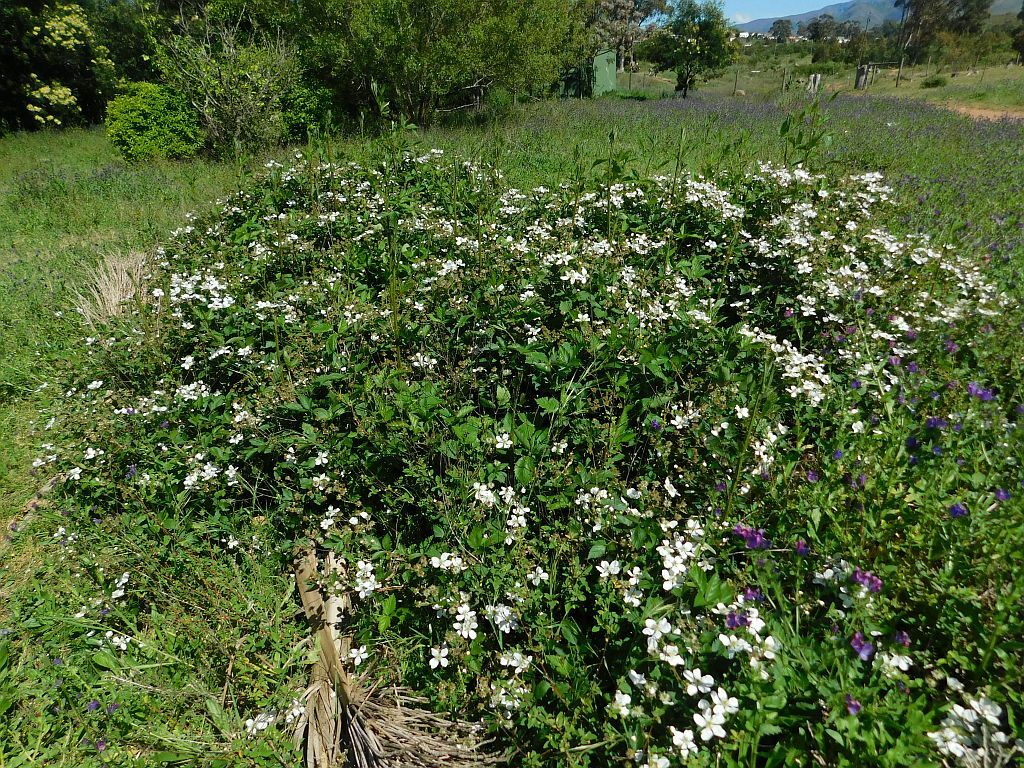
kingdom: Plantae
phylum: Tracheophyta
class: Magnoliopsida
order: Rosales
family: Rosaceae
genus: Rubus
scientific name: Rubus affinis
